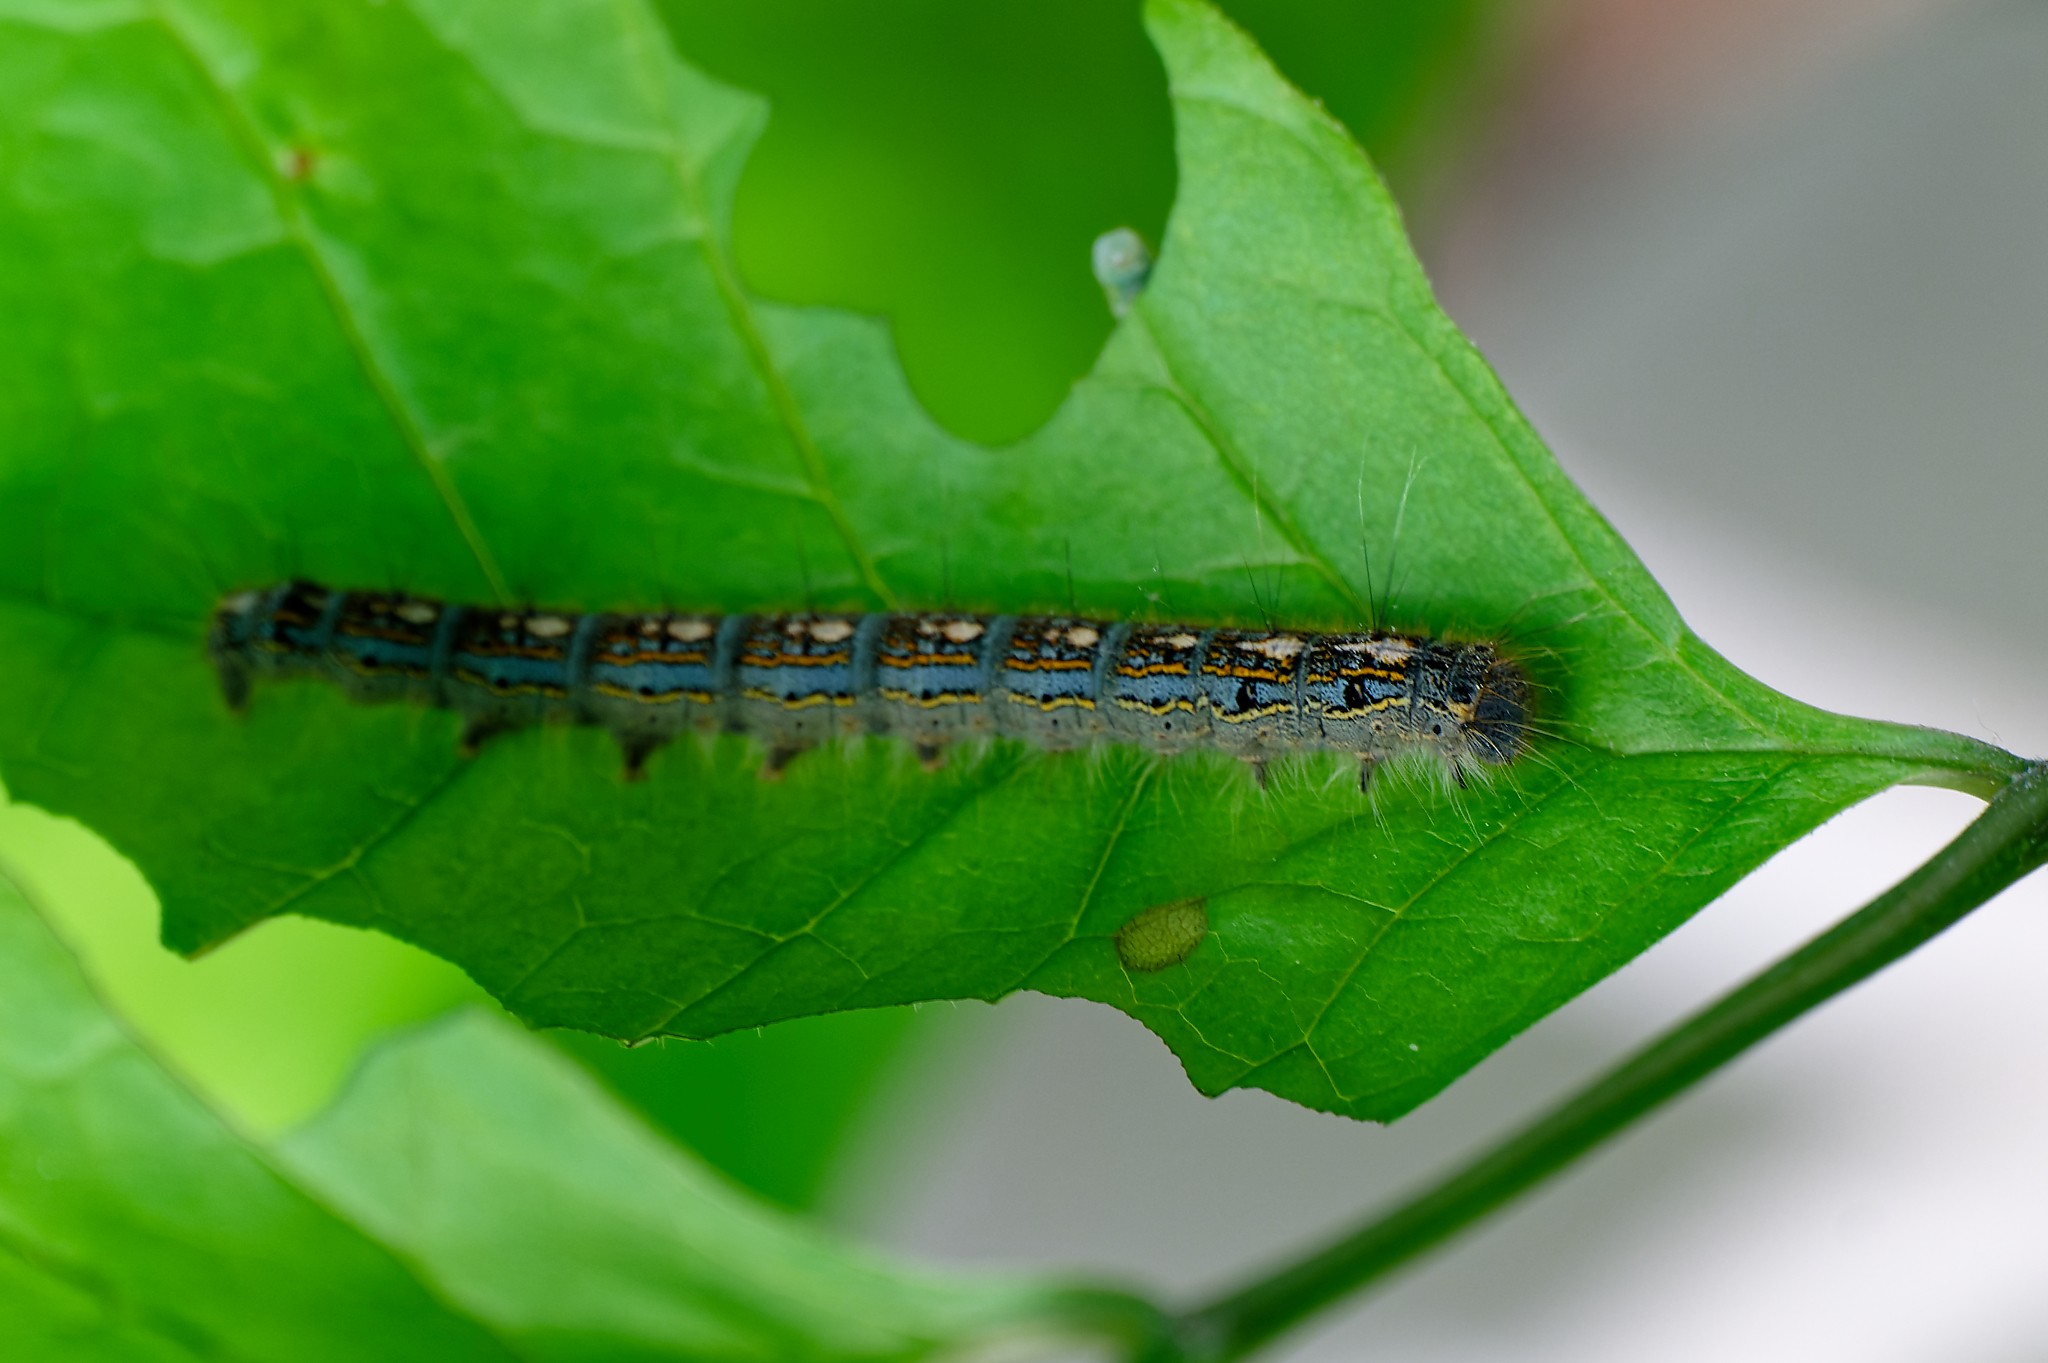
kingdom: Animalia
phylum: Arthropoda
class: Insecta
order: Lepidoptera
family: Lasiocampidae
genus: Malacosoma
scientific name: Malacosoma disstria
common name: Forest tent caterpillar
